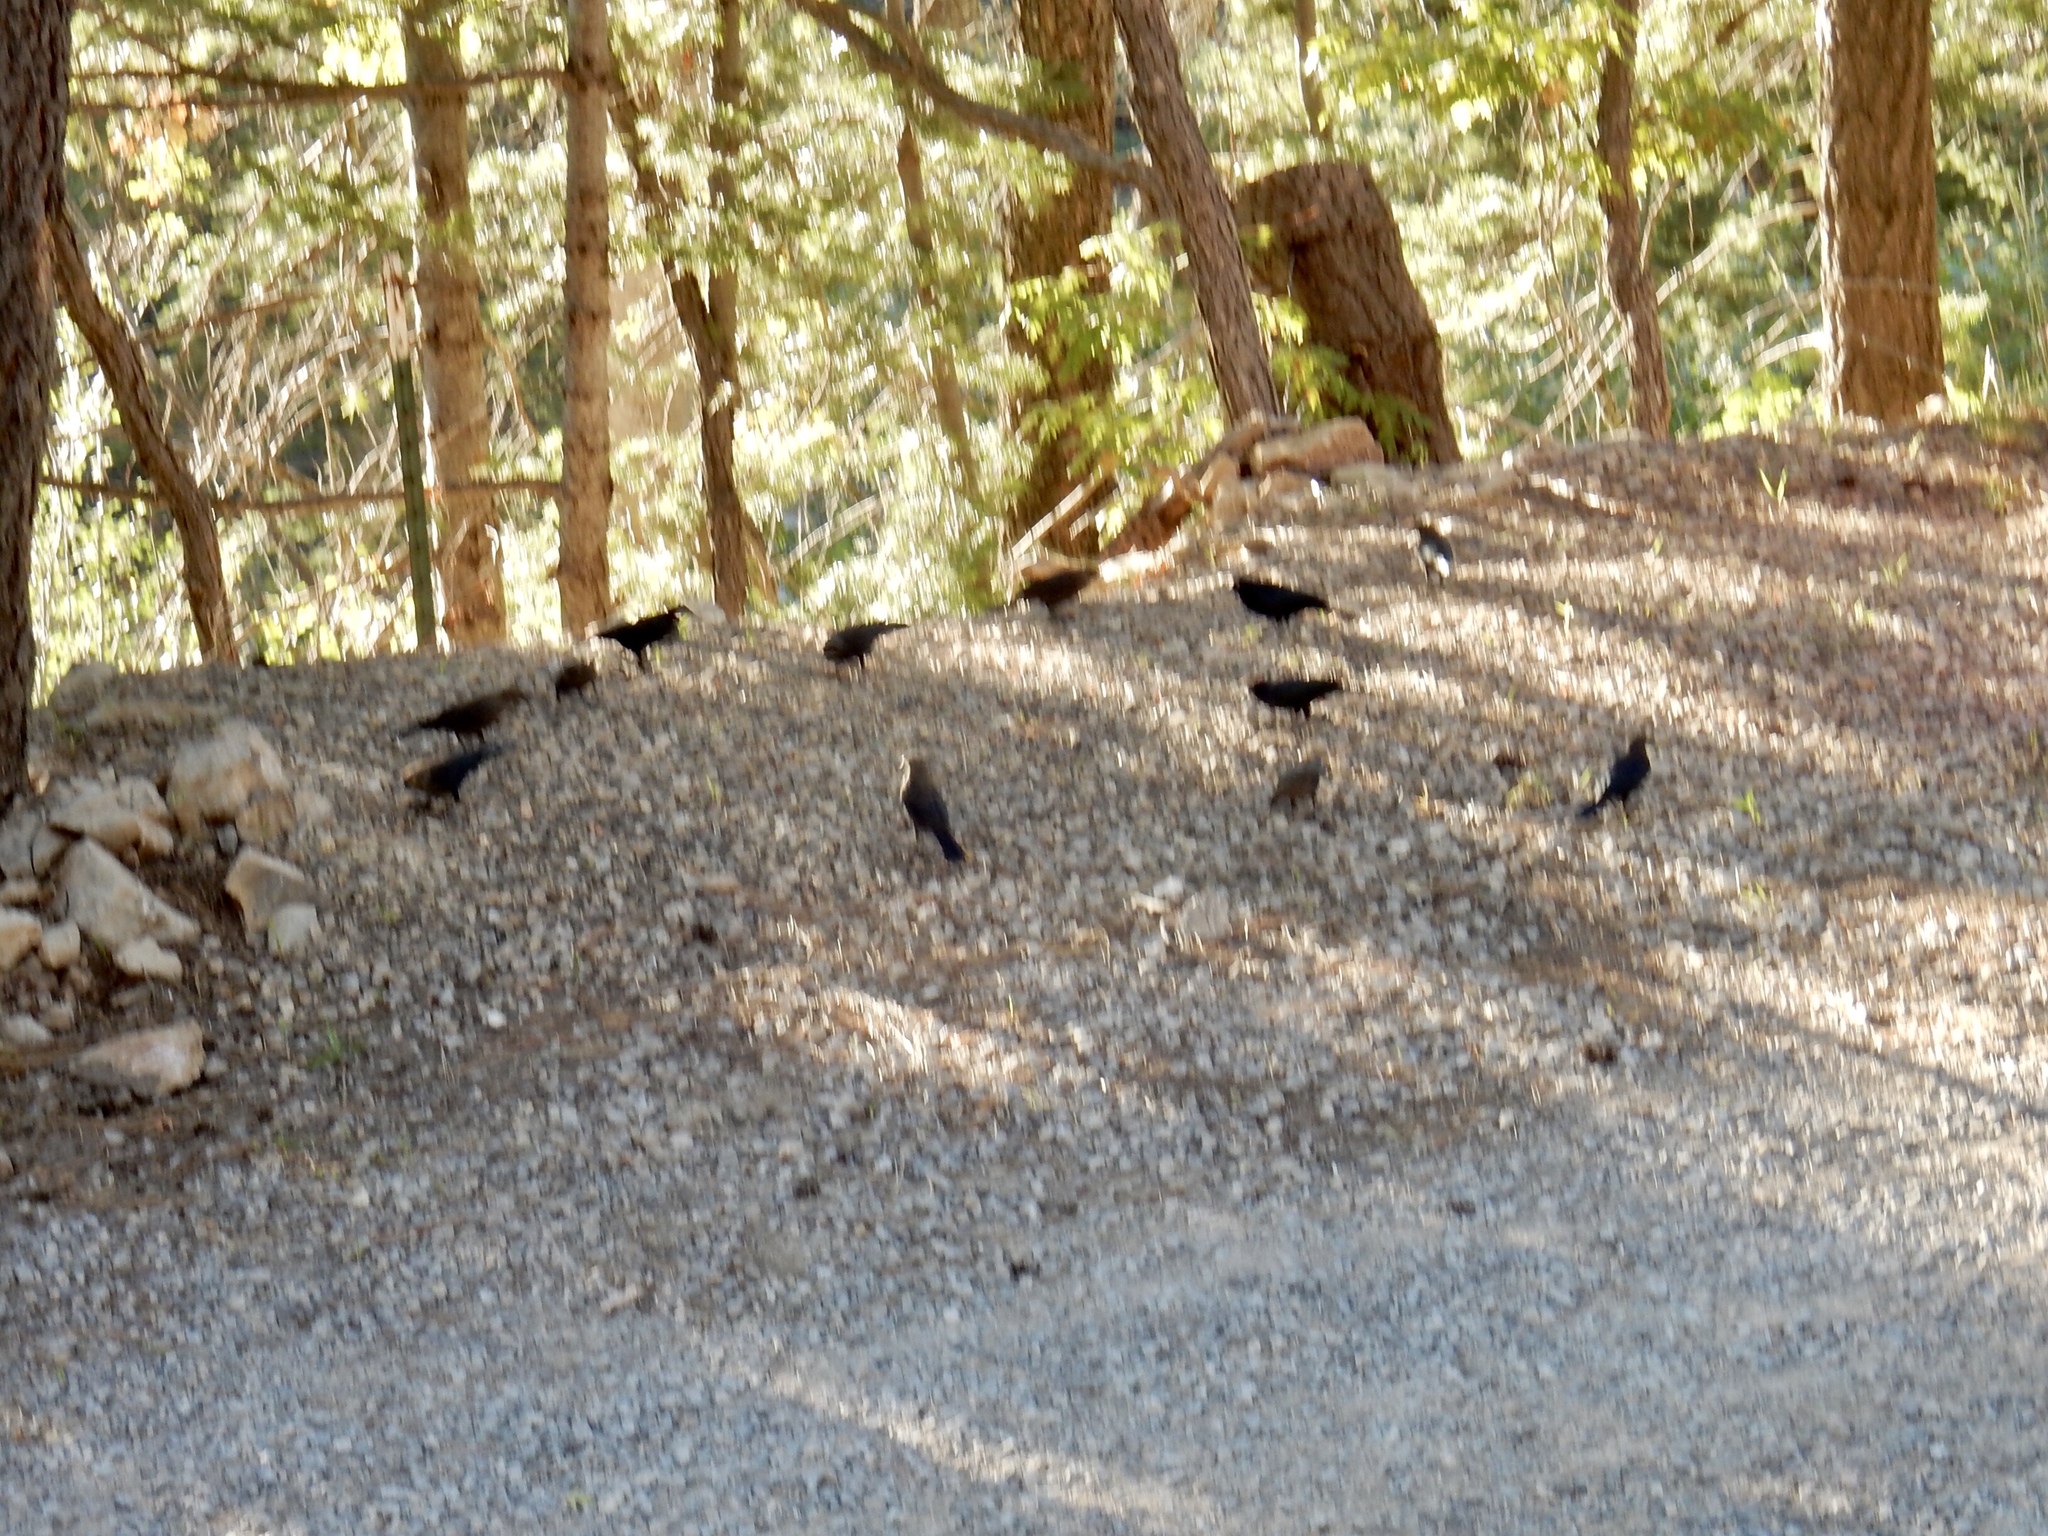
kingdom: Animalia
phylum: Chordata
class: Aves
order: Passeriformes
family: Icteridae
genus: Euphagus
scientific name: Euphagus cyanocephalus
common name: Brewer's blackbird
